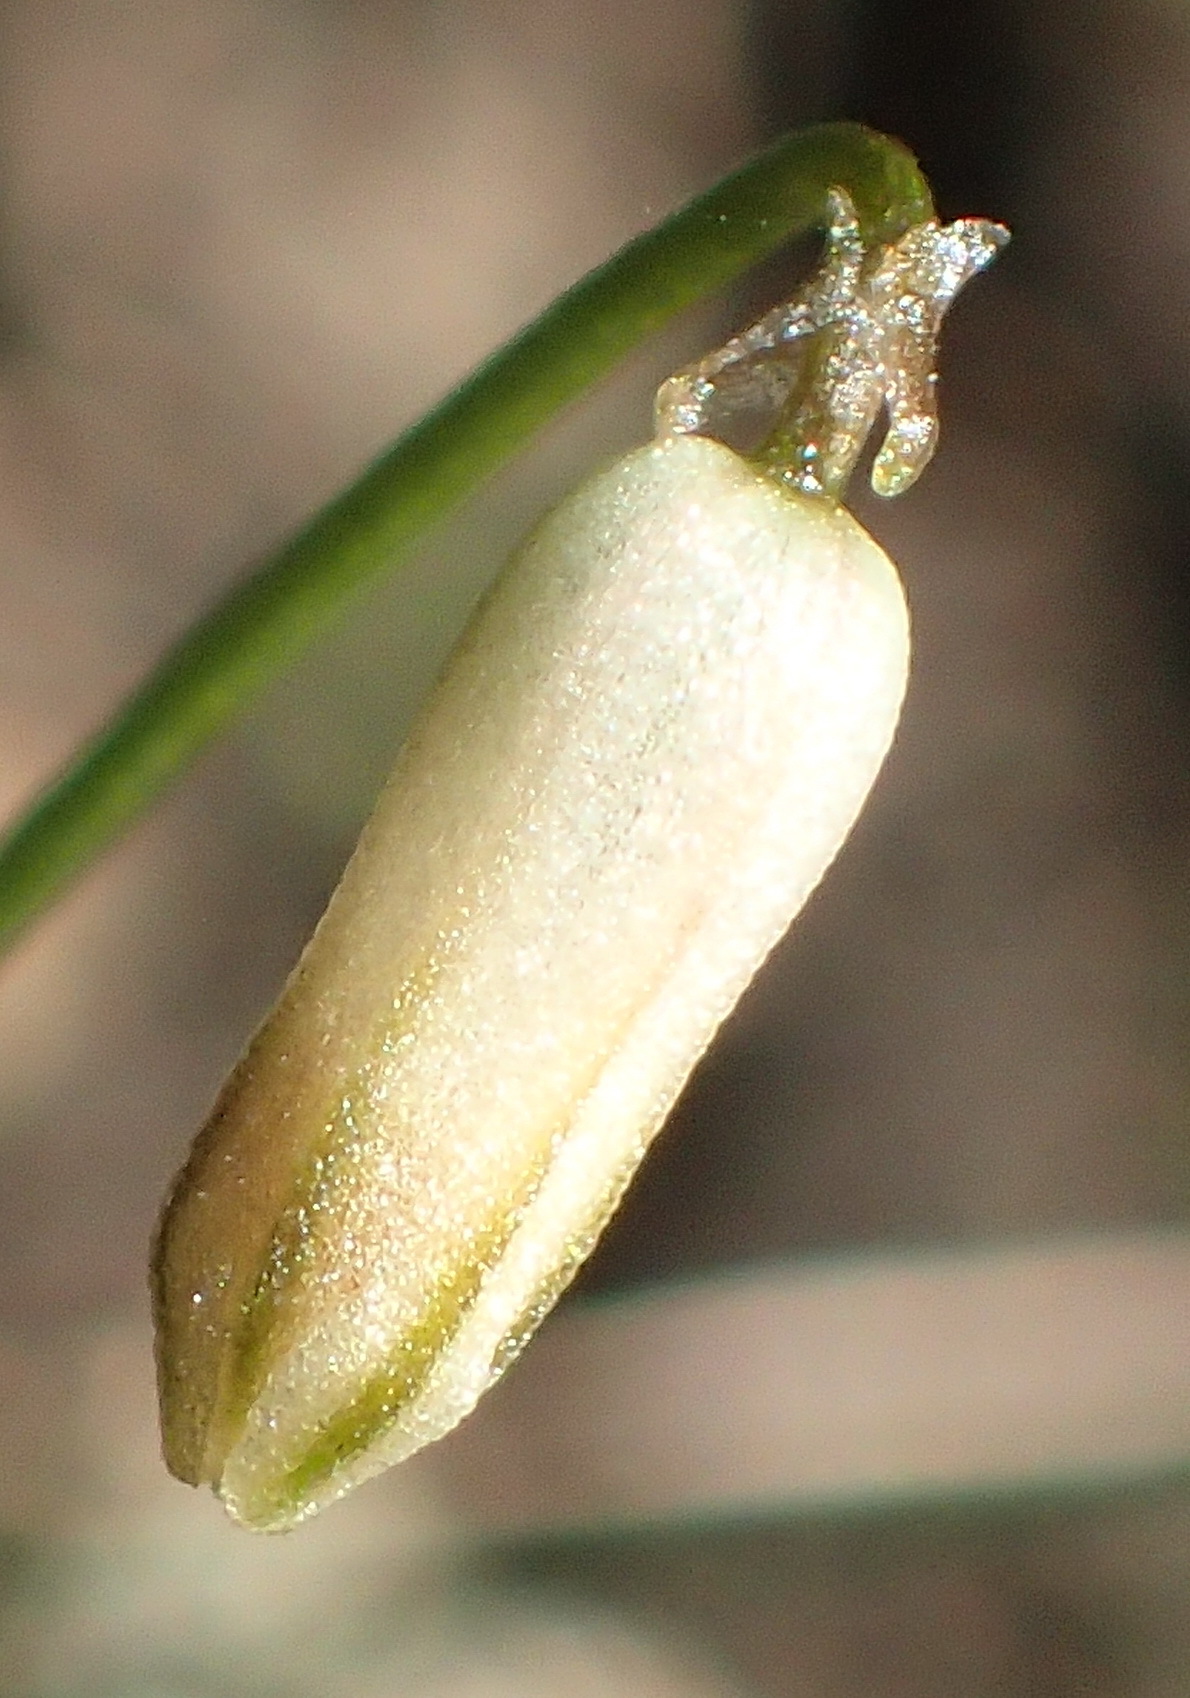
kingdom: Plantae
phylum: Tracheophyta
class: Liliopsida
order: Asparagales
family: Asparagaceae
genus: Drimia
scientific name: Drimia uniflora
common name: Fairy bell
